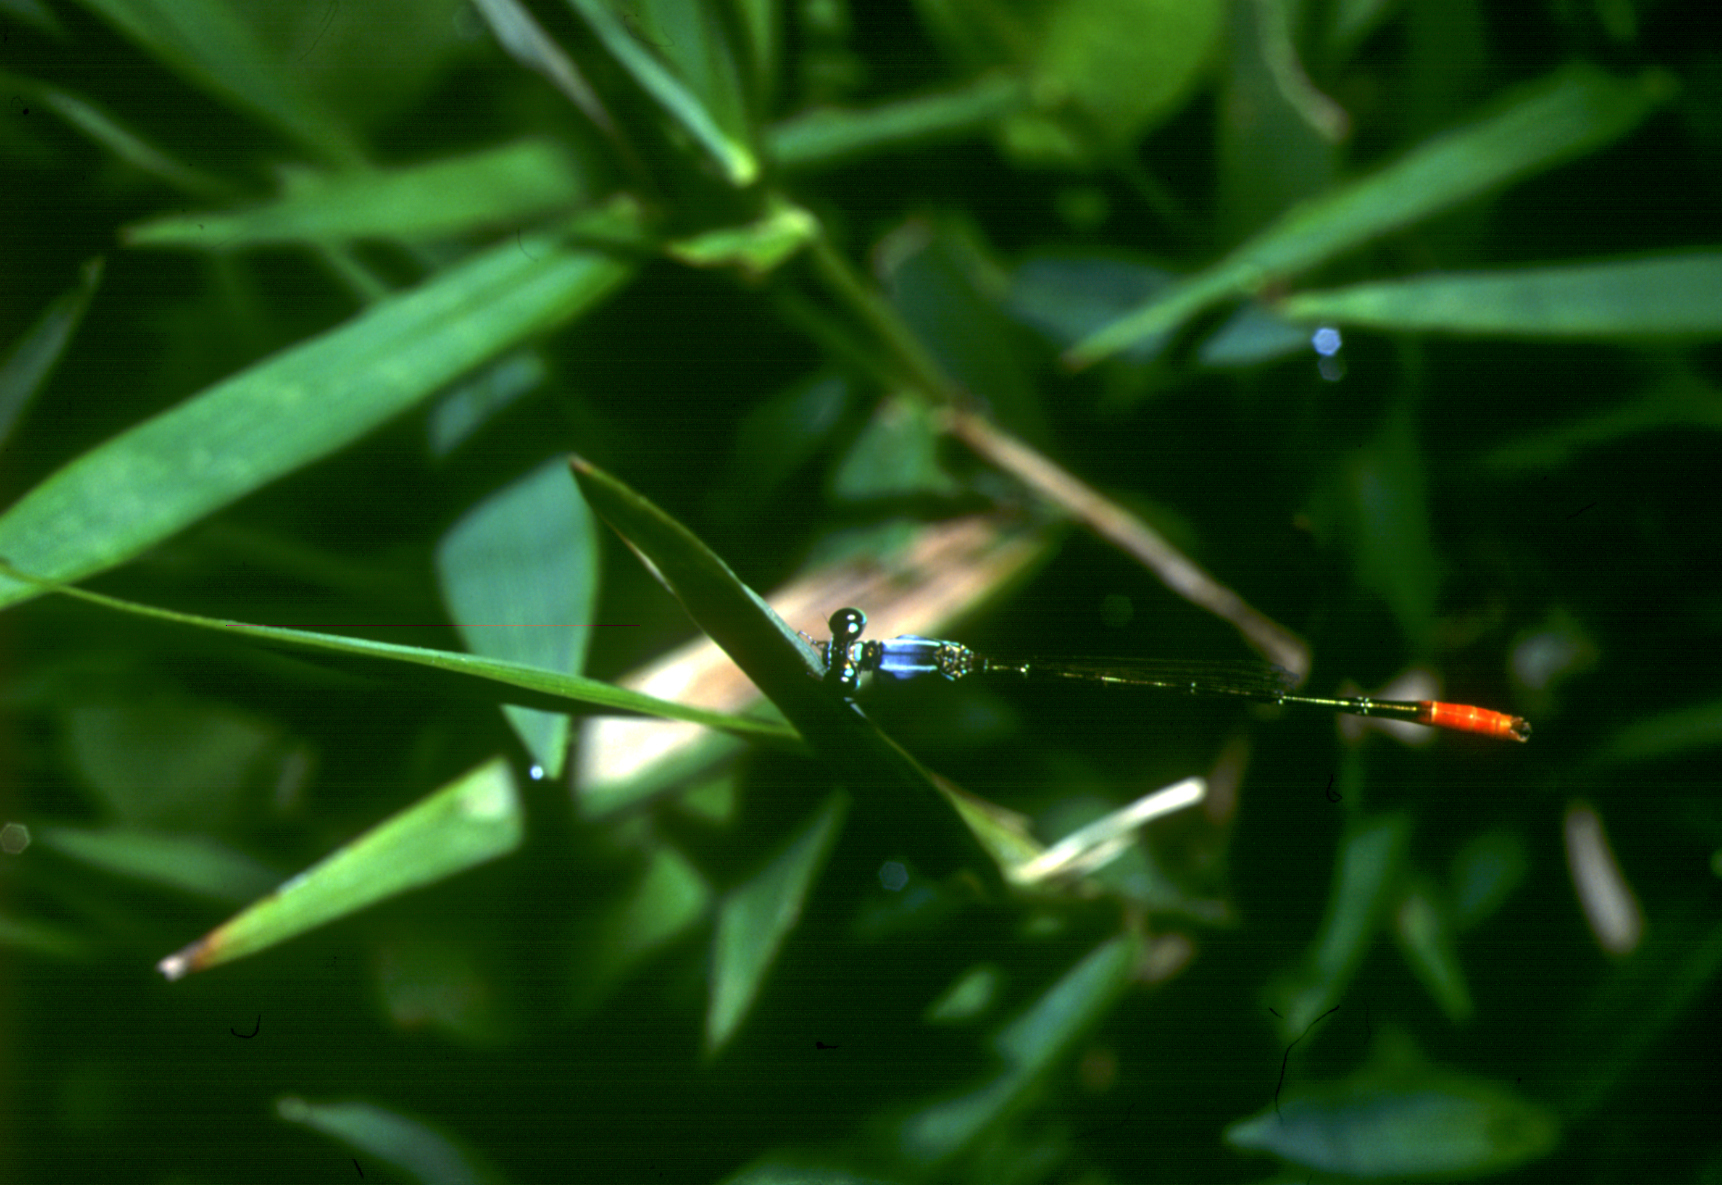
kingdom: Animalia
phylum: Arthropoda
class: Insecta
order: Odonata
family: Coenagrionidae
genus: Agriocnemis
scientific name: Agriocnemis femina
